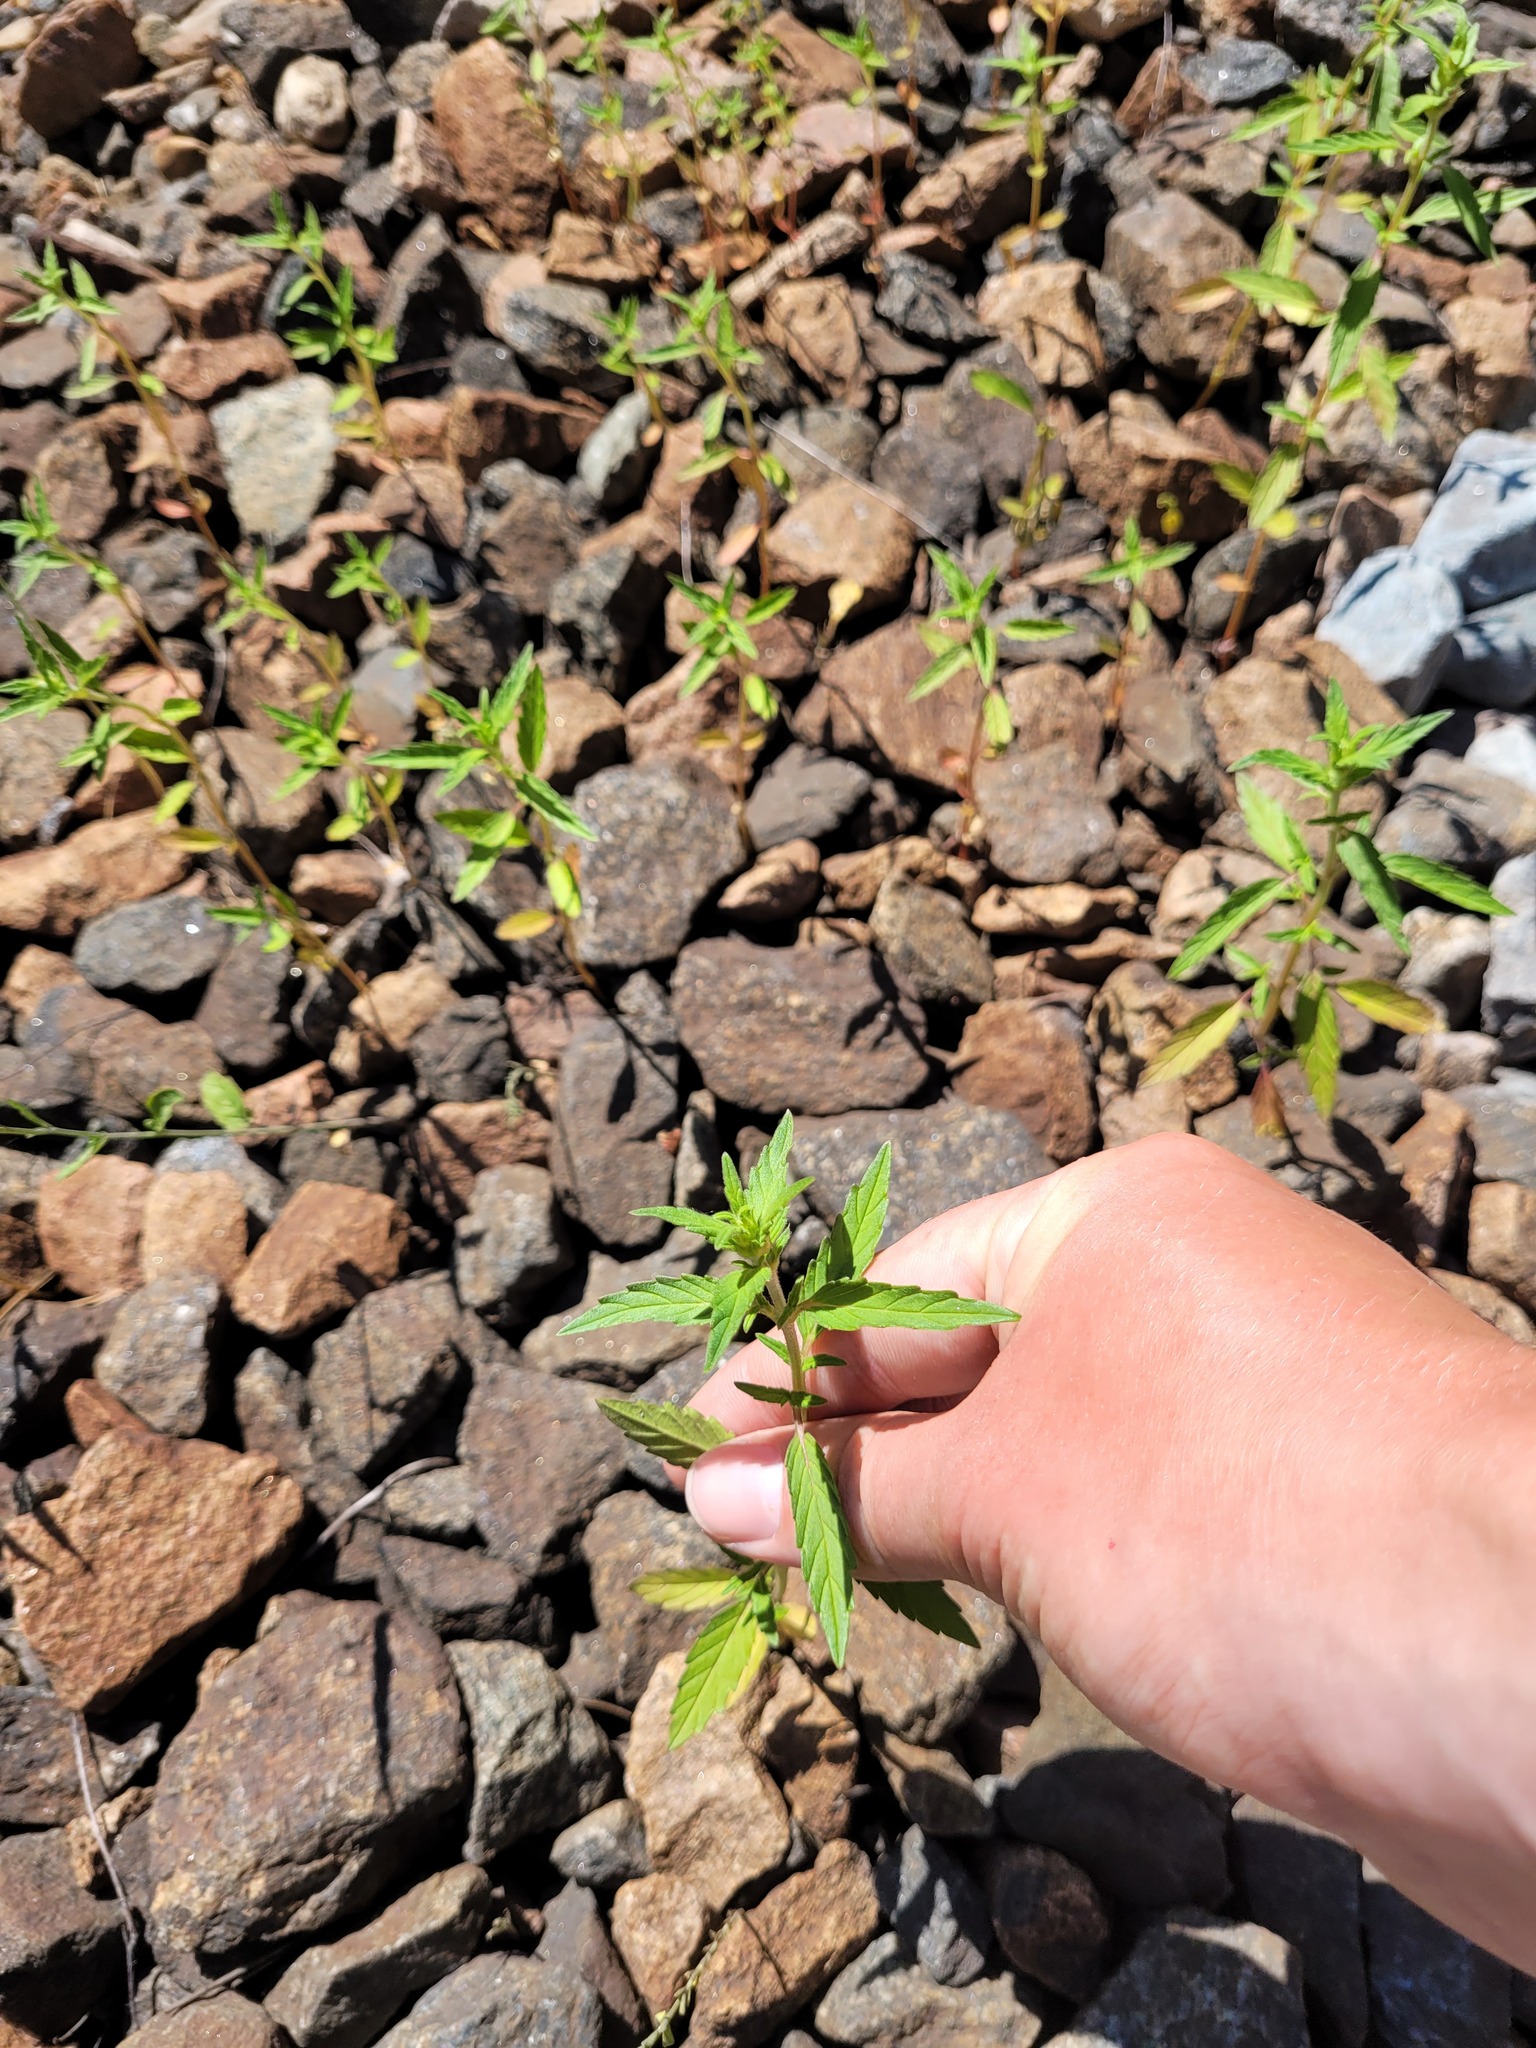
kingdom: Plantae
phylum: Tracheophyta
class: Magnoliopsida
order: Lamiales
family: Lamiaceae
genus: Galeopsis
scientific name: Galeopsis ladanum
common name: Broad-leaved hemp-nettle
